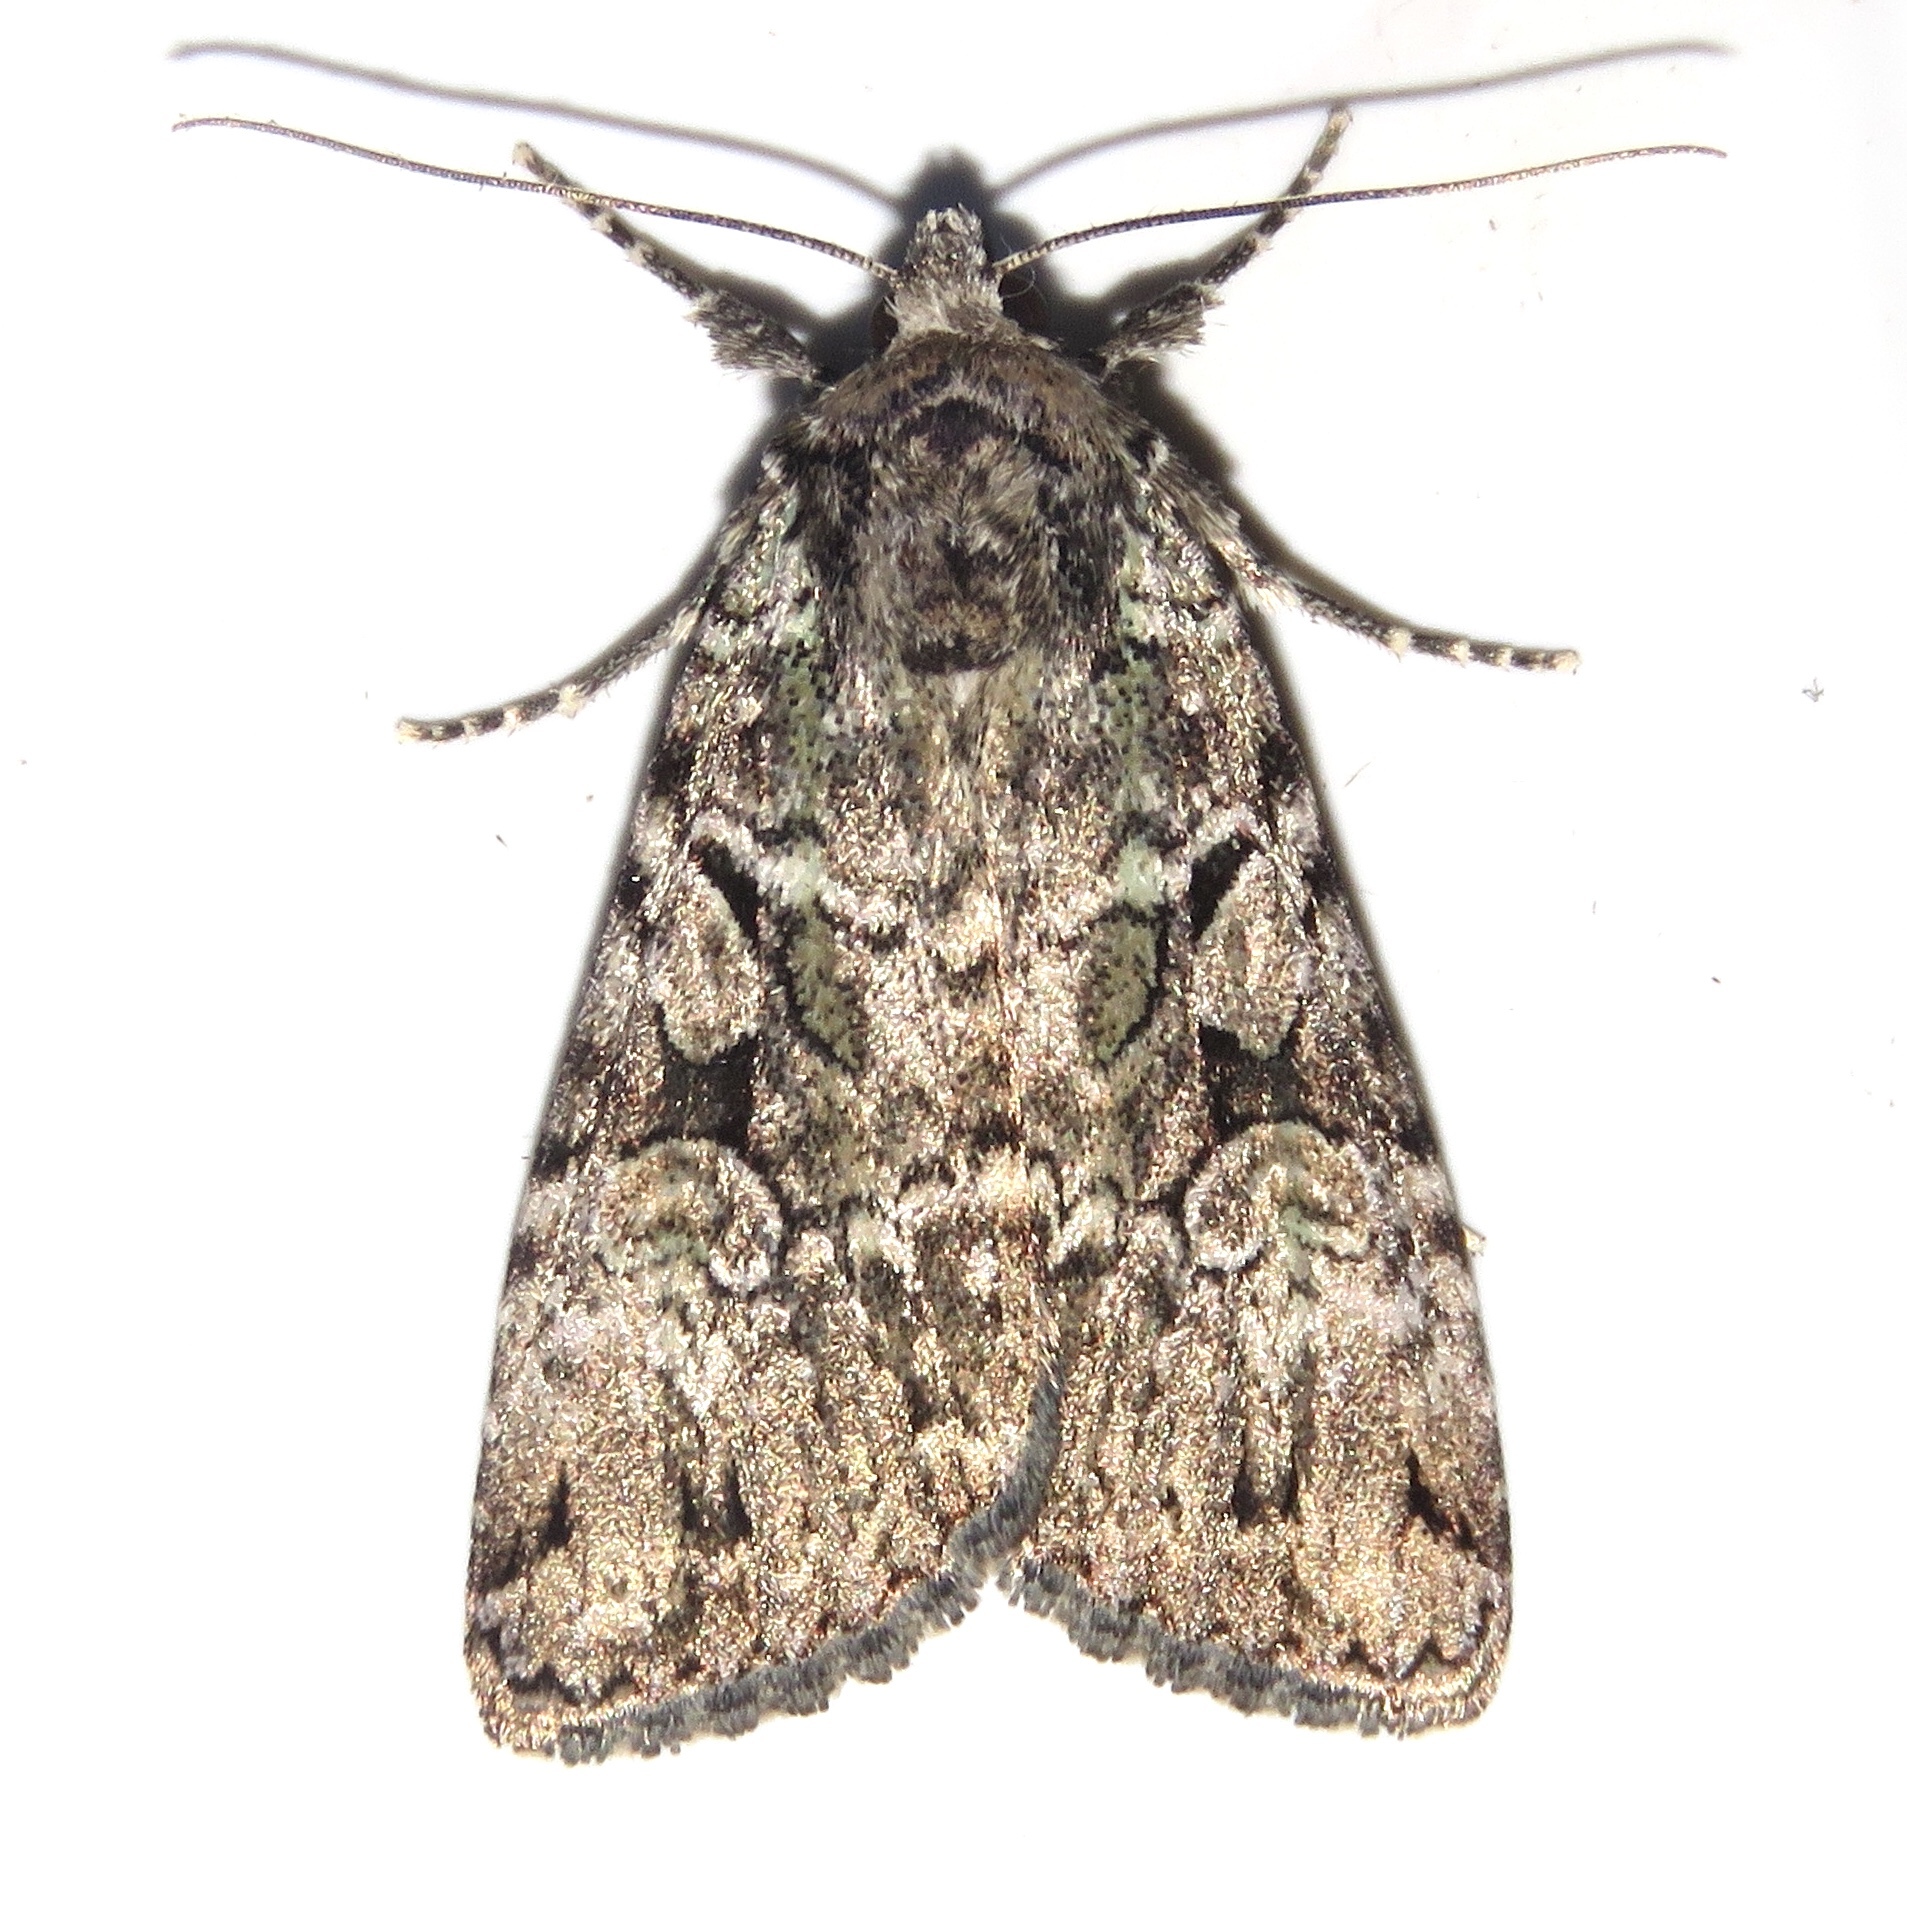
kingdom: Animalia
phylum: Arthropoda
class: Insecta
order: Lepidoptera
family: Noctuidae
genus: Anaplectoides
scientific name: Anaplectoides prasina
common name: Green arches
